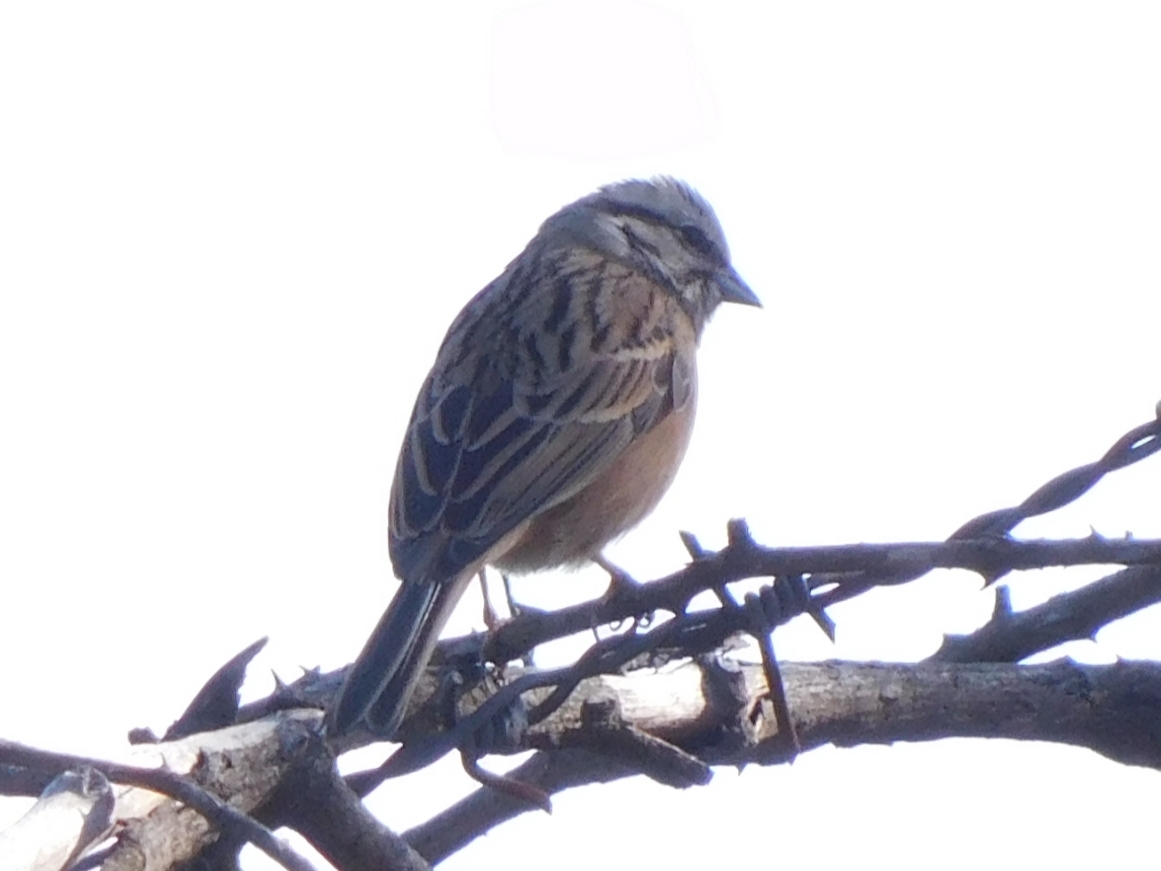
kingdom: Animalia
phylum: Chordata
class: Aves
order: Passeriformes
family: Emberizidae
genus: Emberiza
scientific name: Emberiza cia
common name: Rock bunting
